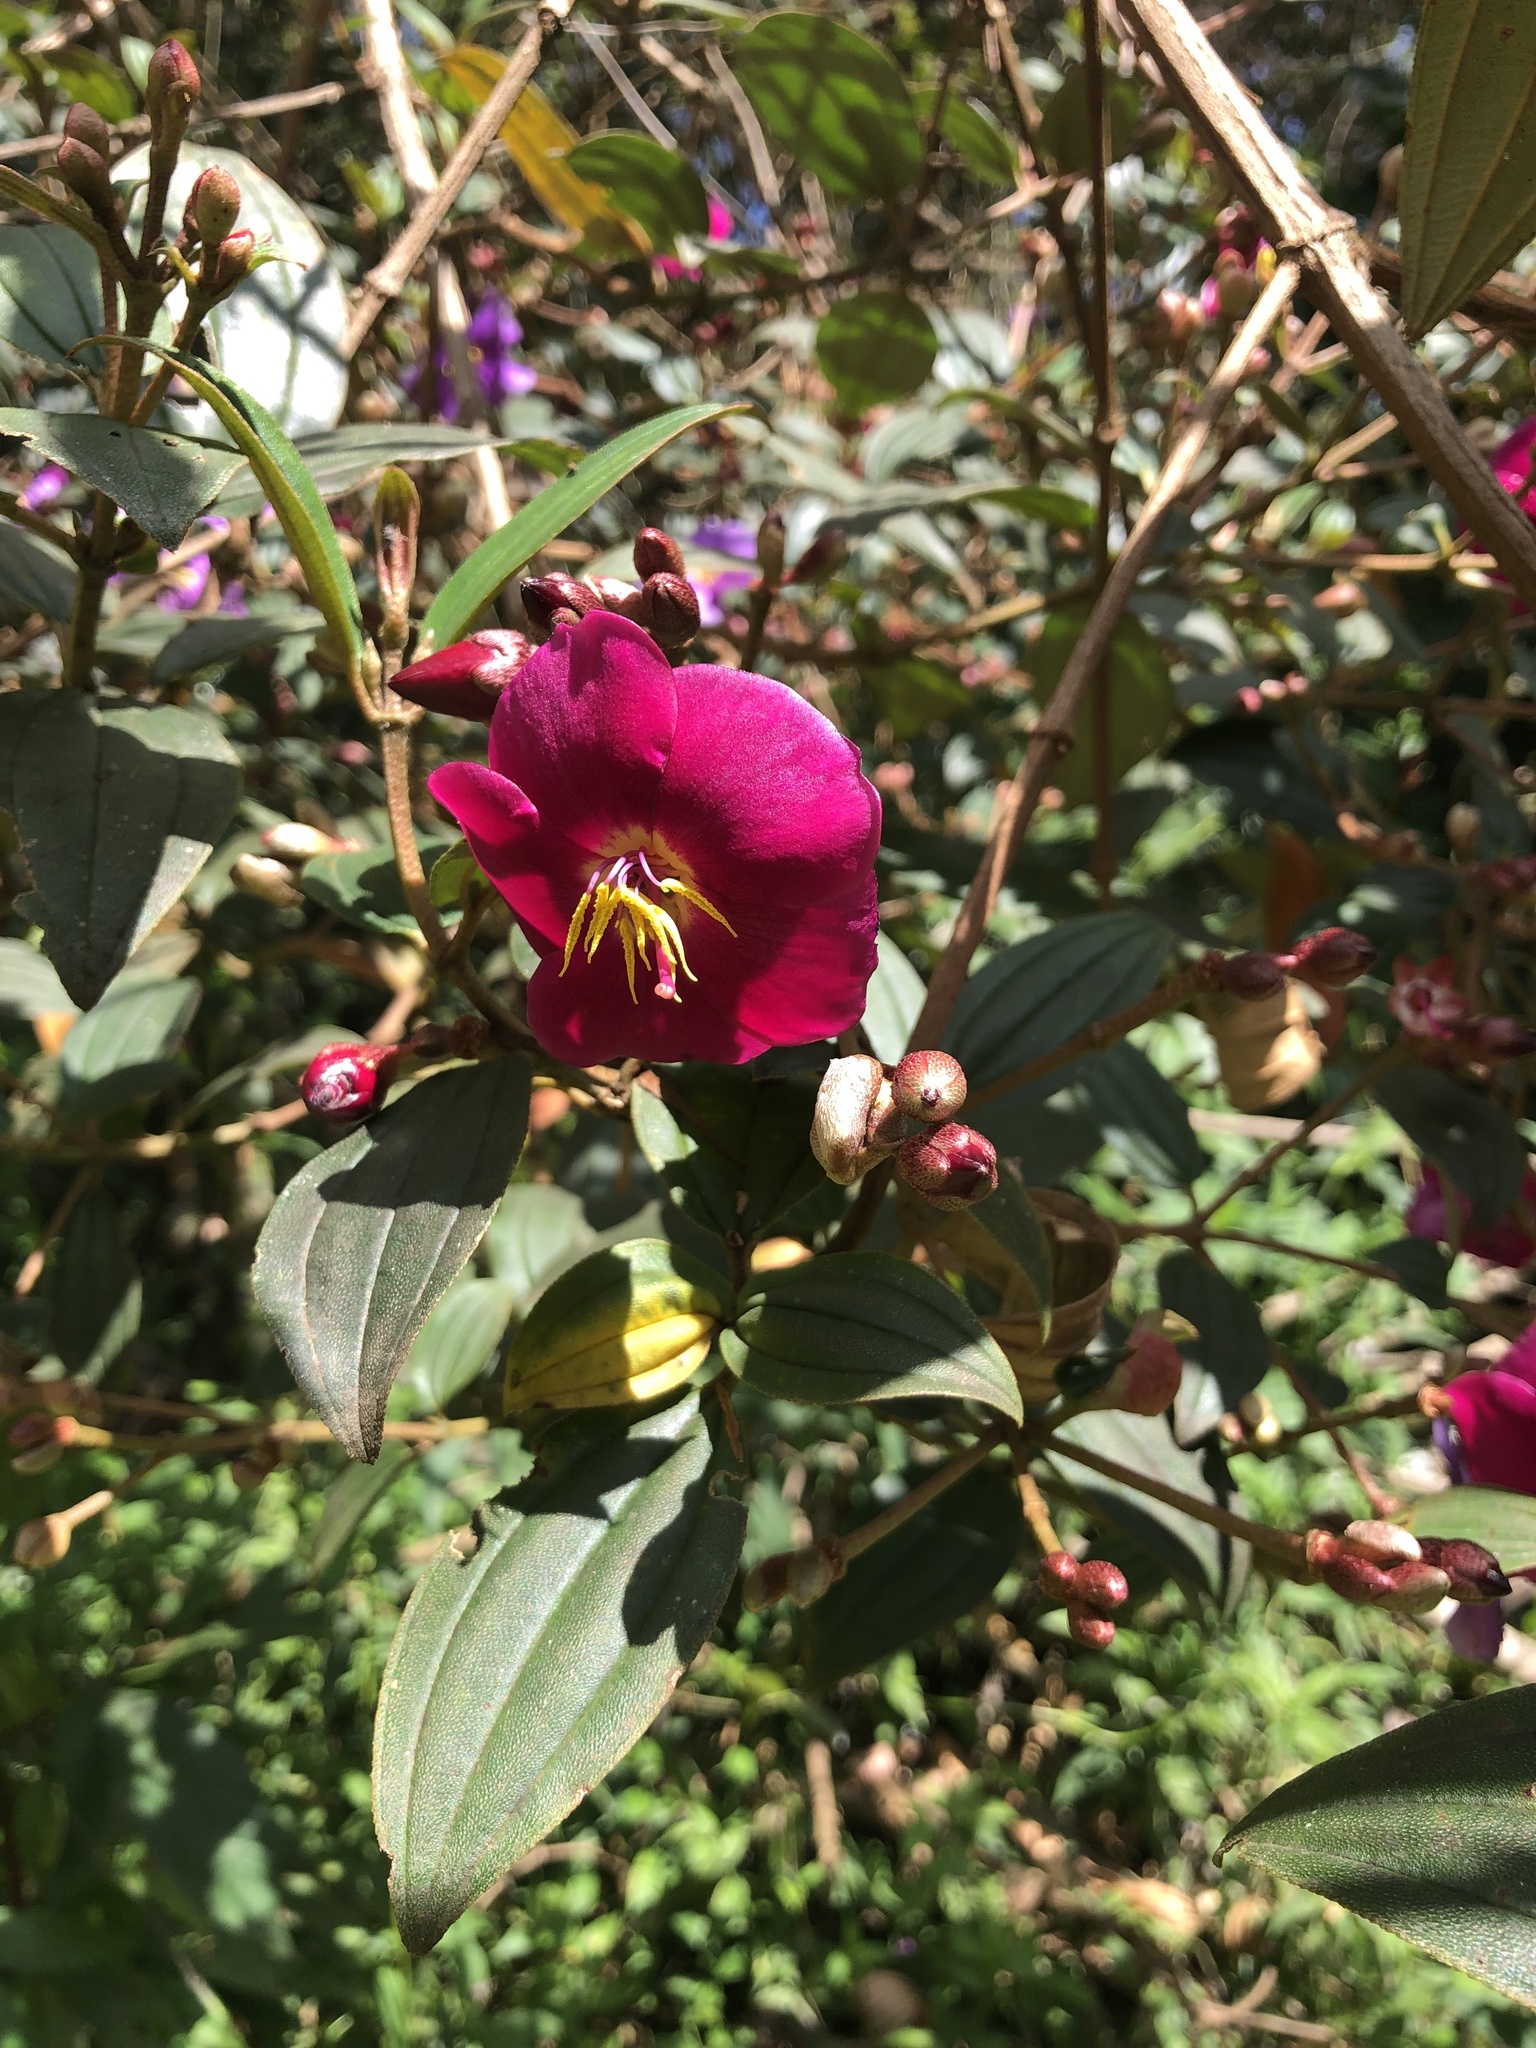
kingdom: Plantae
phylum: Tracheophyta
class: Magnoliopsida
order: Myrtales
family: Melastomataceae
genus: Andesanthus
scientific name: Andesanthus lepidotus
